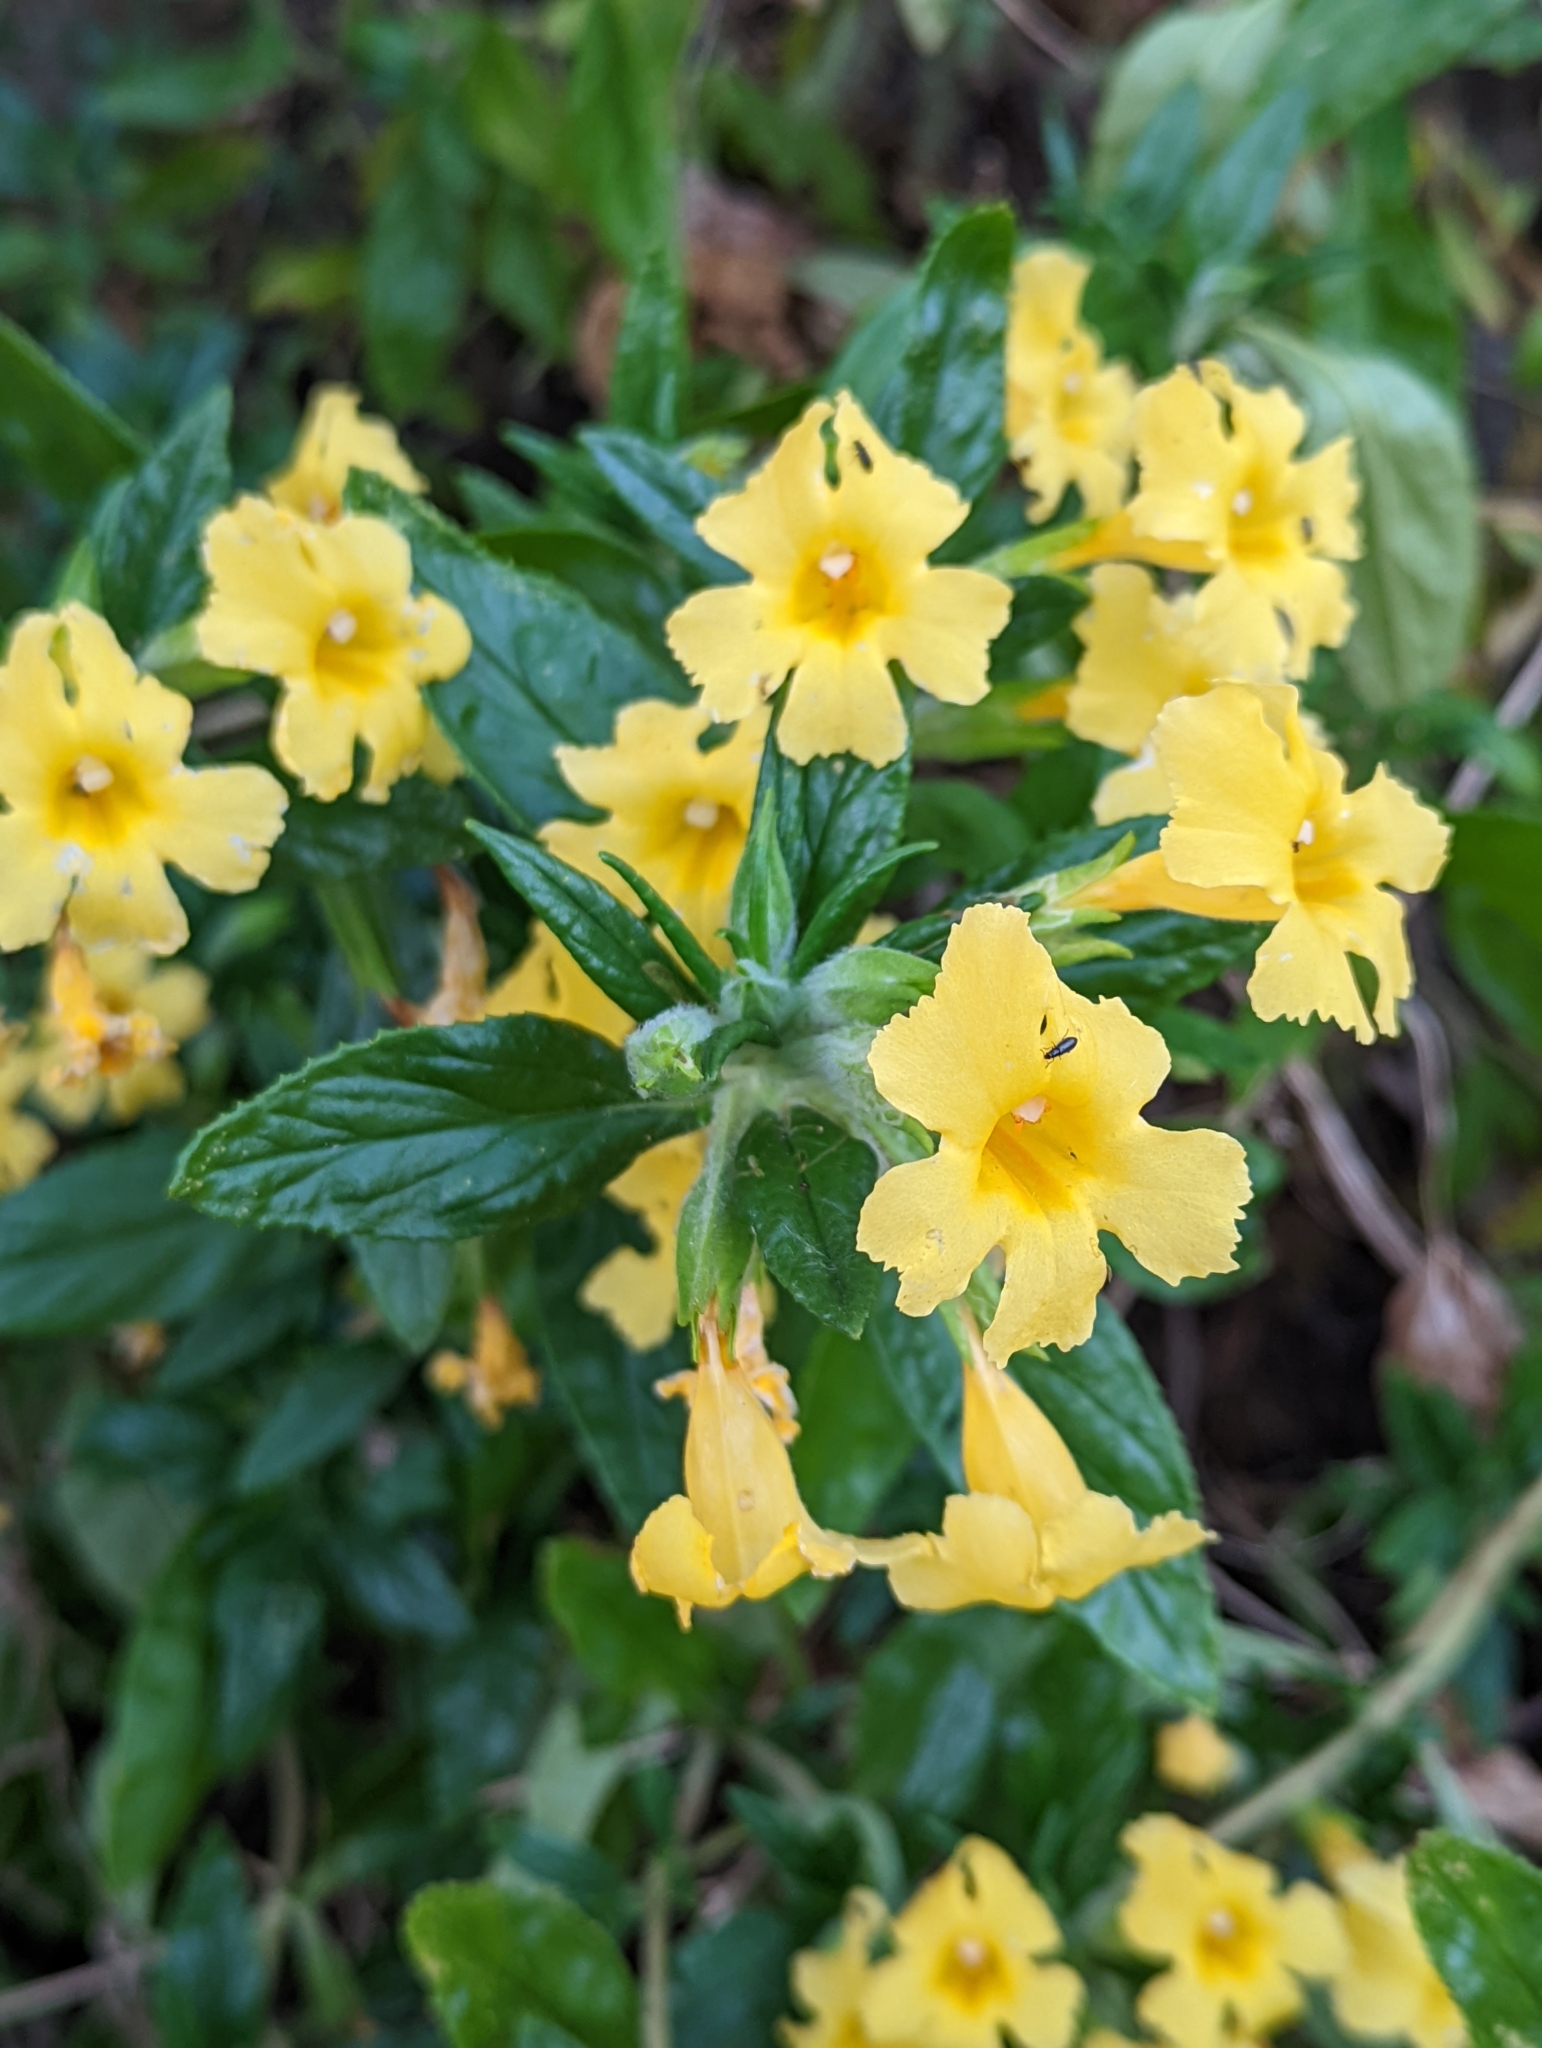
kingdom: Plantae
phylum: Tracheophyta
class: Magnoliopsida
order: Lamiales
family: Phrymaceae
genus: Diplacus
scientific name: Diplacus calycinus
